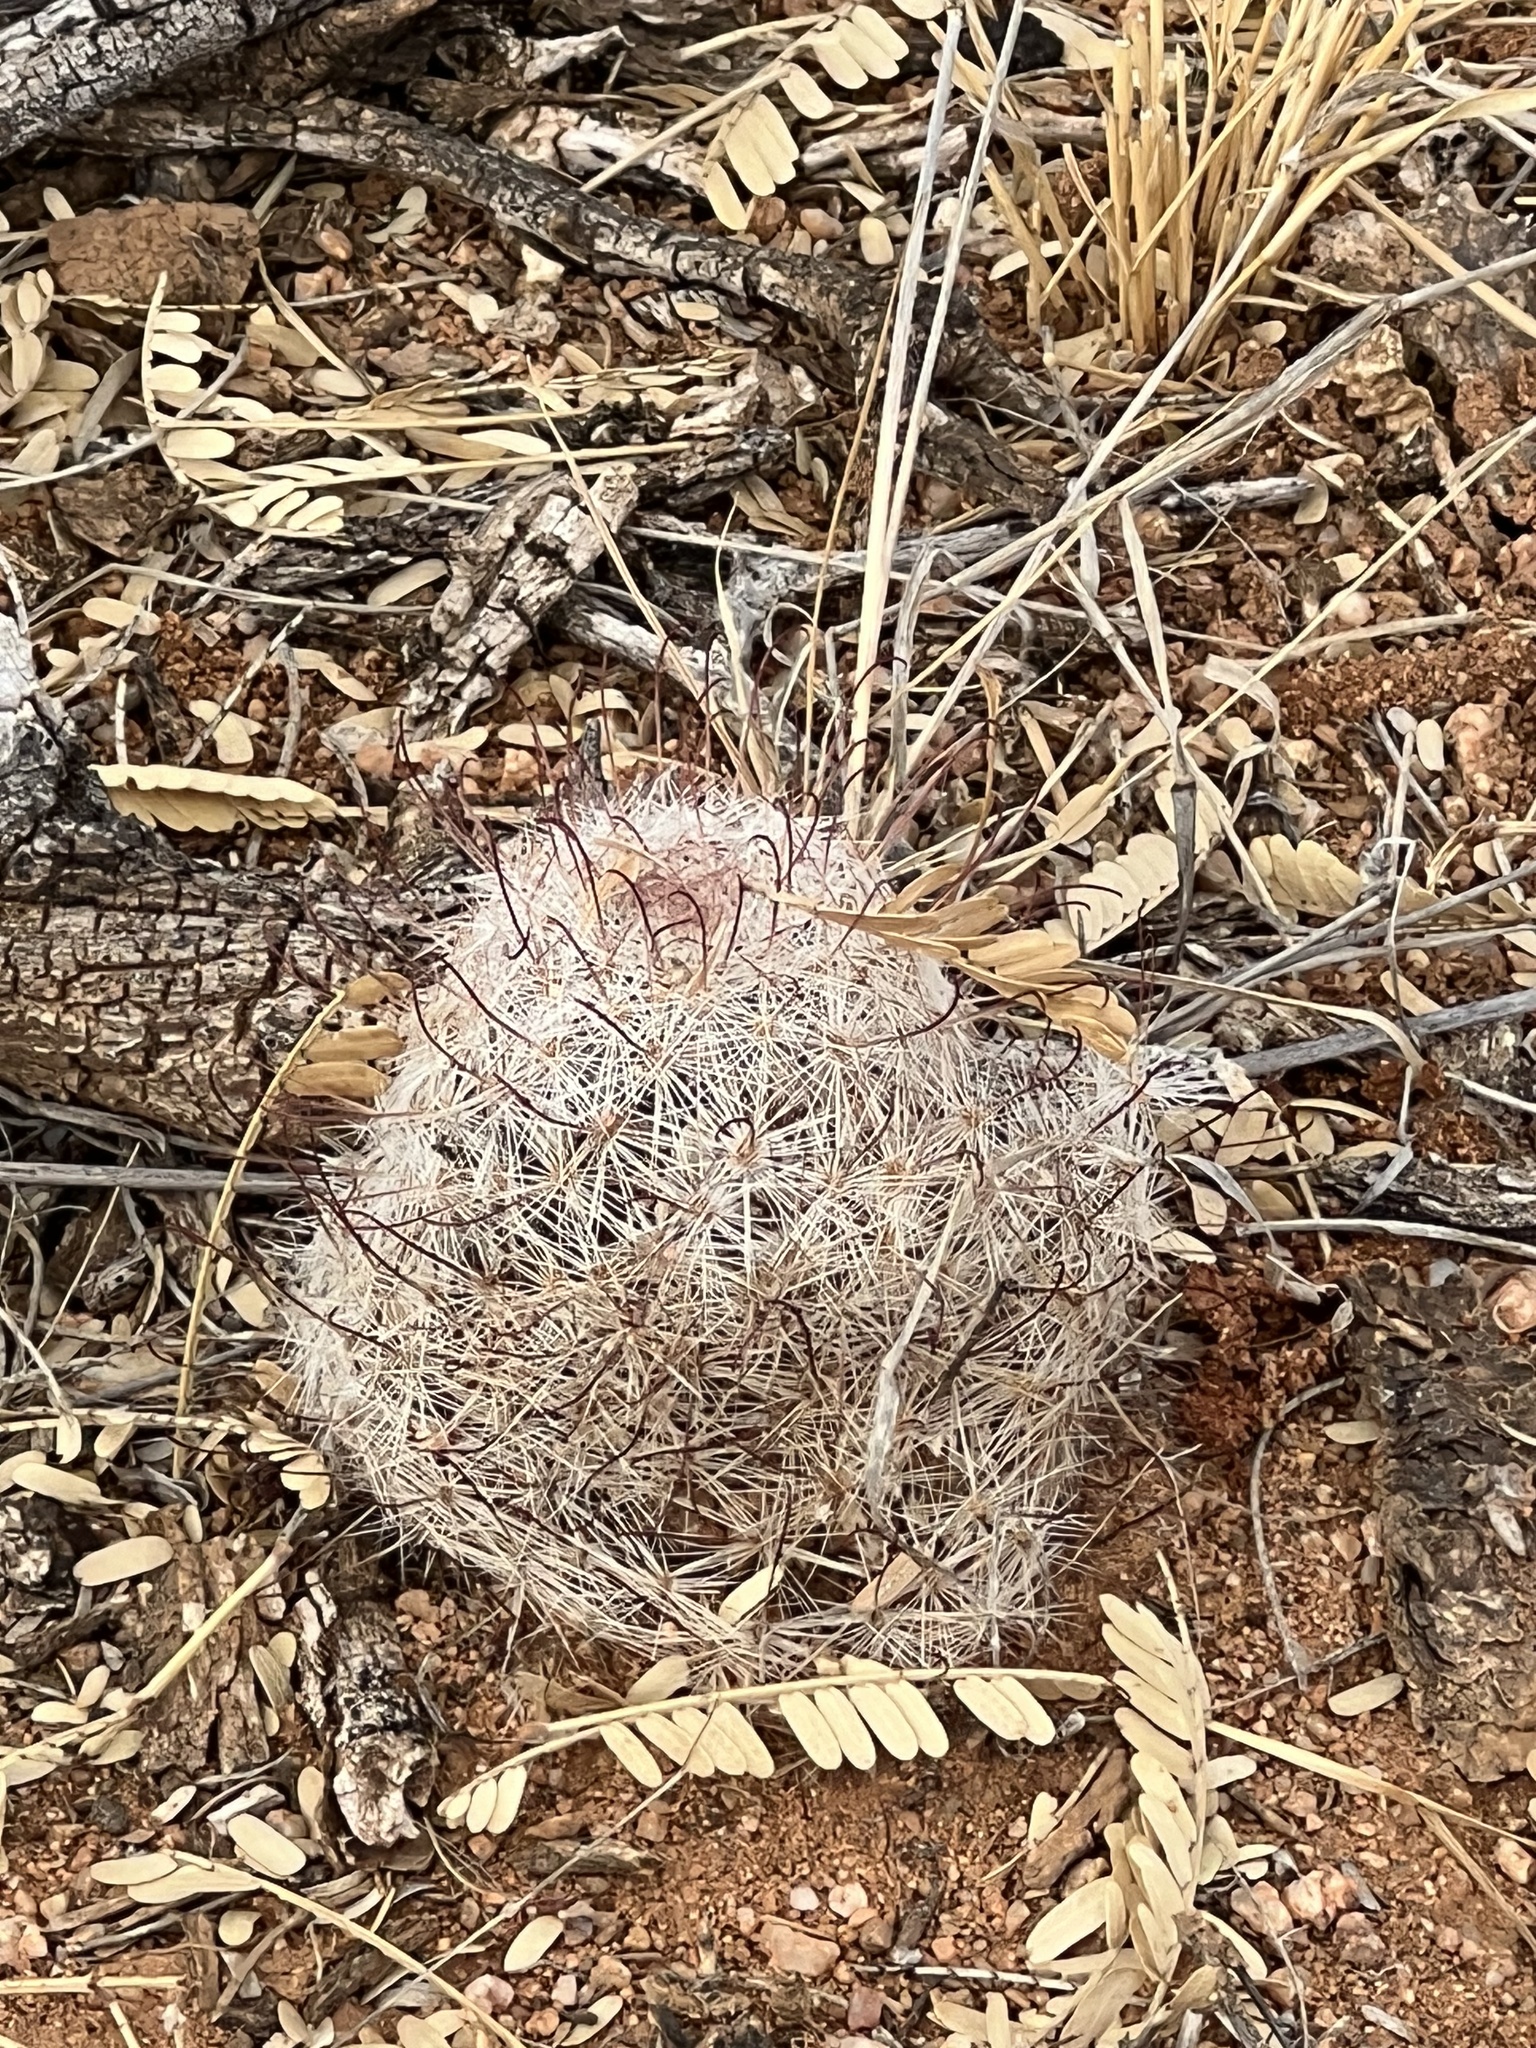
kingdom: Plantae
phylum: Tracheophyta
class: Magnoliopsida
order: Caryophyllales
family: Cactaceae
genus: Cochemiea
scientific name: Cochemiea grahamii
